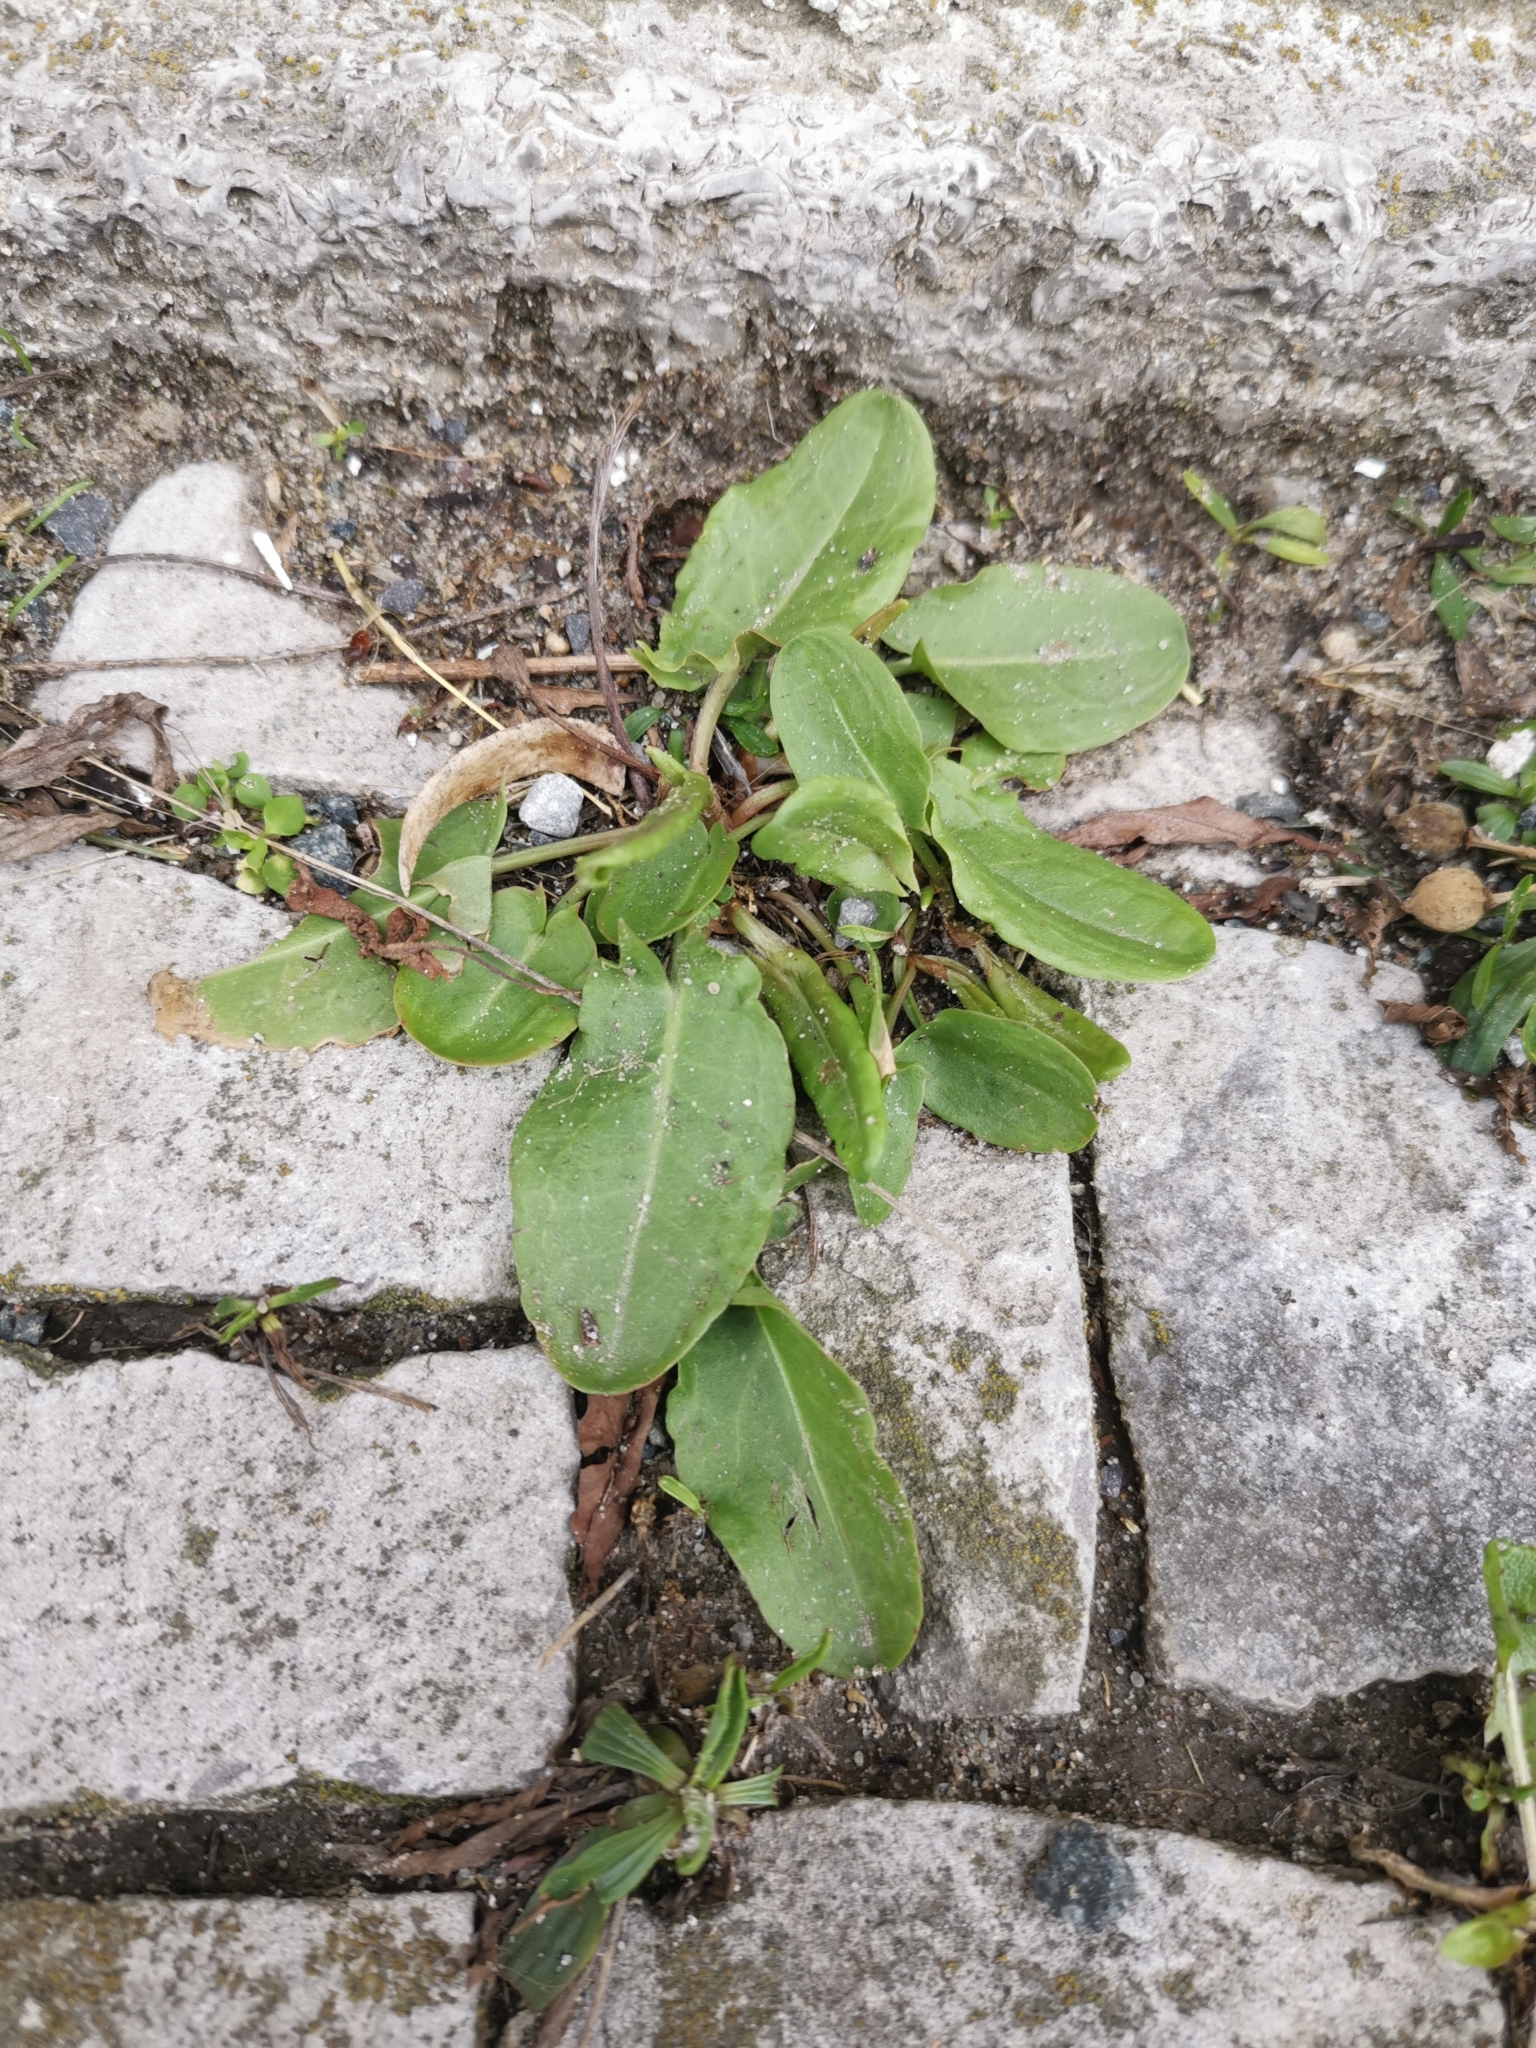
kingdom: Plantae
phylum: Tracheophyta
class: Magnoliopsida
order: Caryophyllales
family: Polygonaceae
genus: Rumex
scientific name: Rumex acetosa
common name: Garden sorrel
